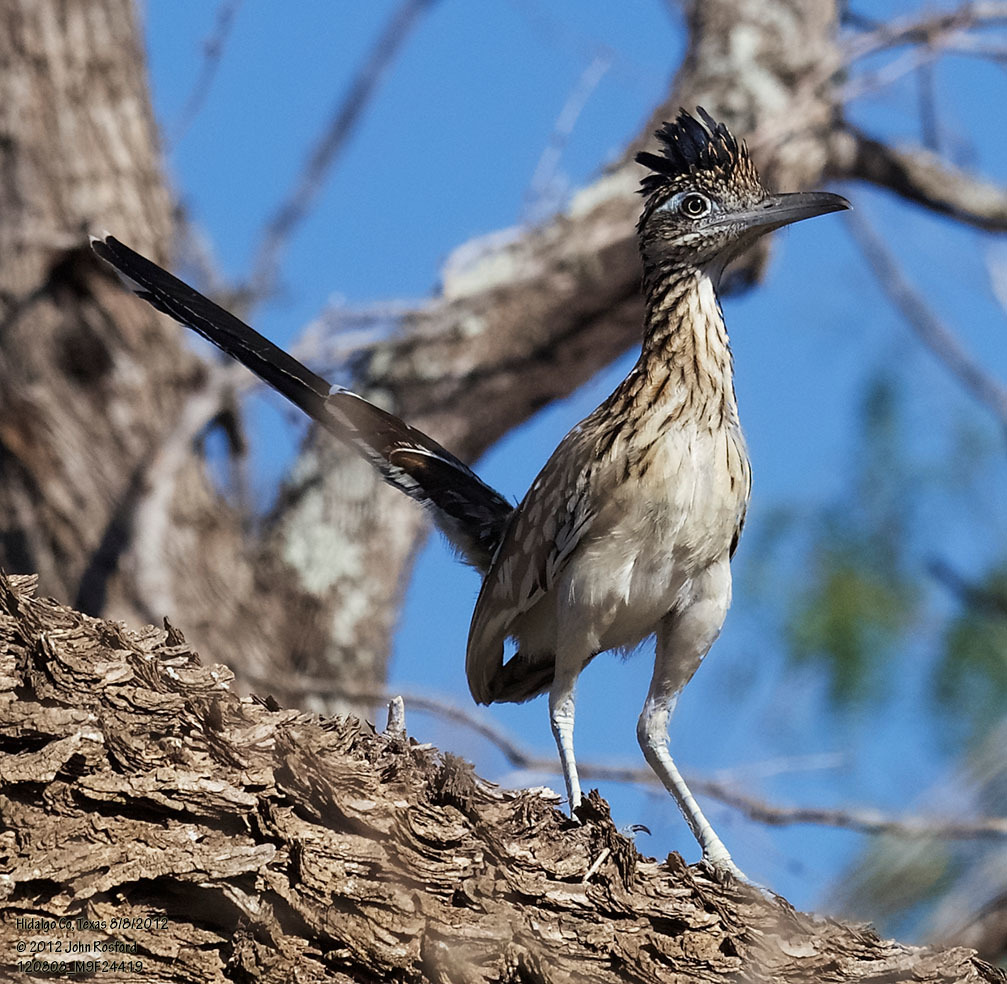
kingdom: Animalia
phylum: Chordata
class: Aves
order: Cuculiformes
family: Cuculidae
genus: Geococcyx
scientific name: Geococcyx californianus
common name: Greater roadrunner
